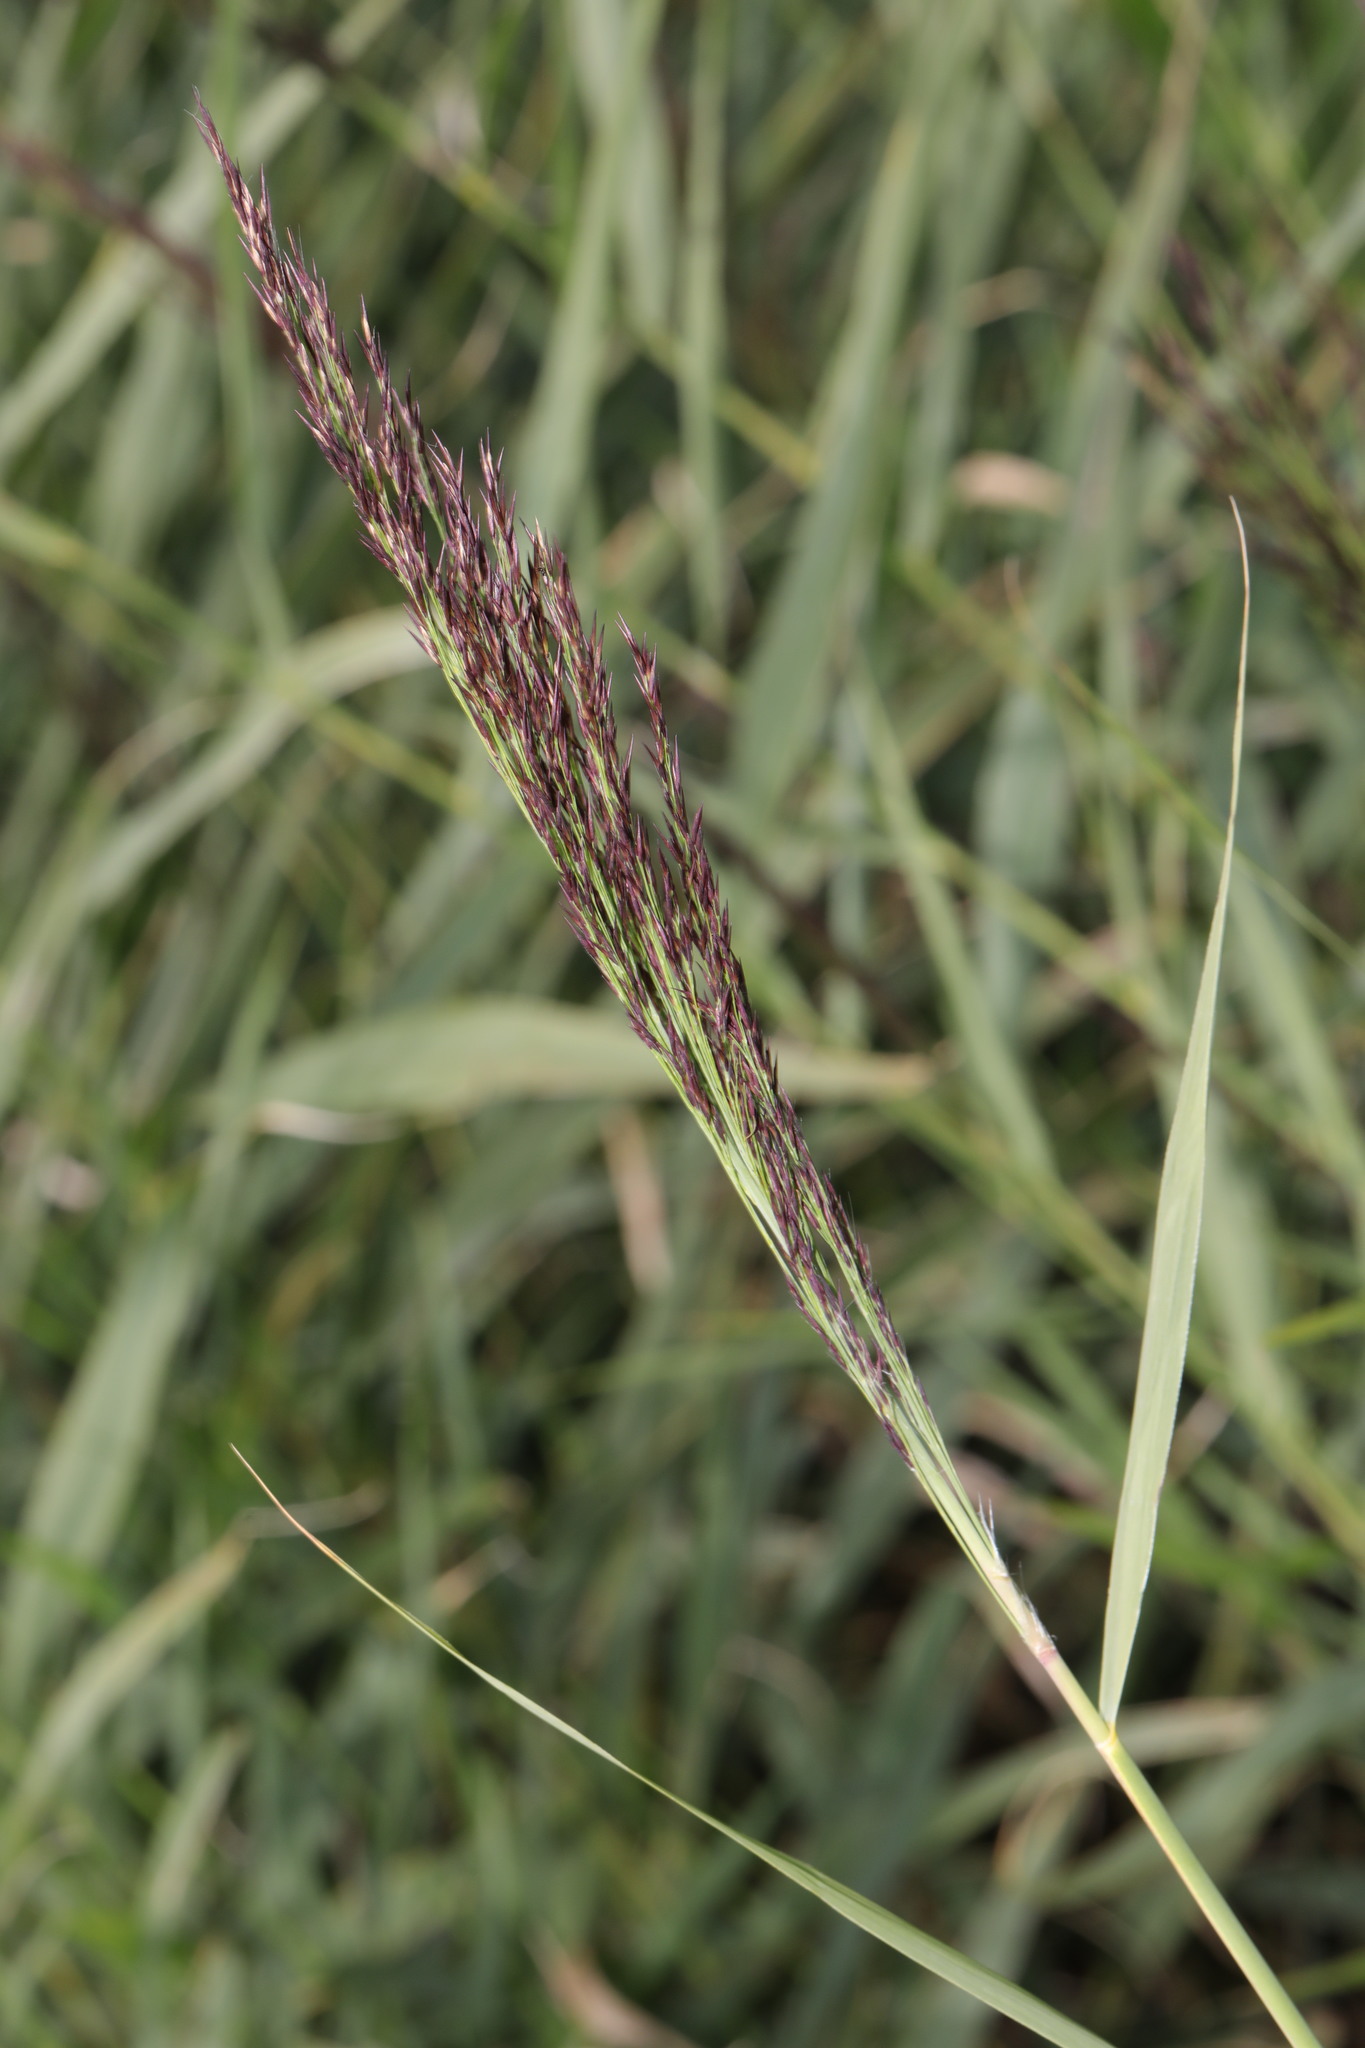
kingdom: Plantae
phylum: Tracheophyta
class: Liliopsida
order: Poales
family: Poaceae
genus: Phragmites
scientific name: Phragmites australis
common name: Common reed
